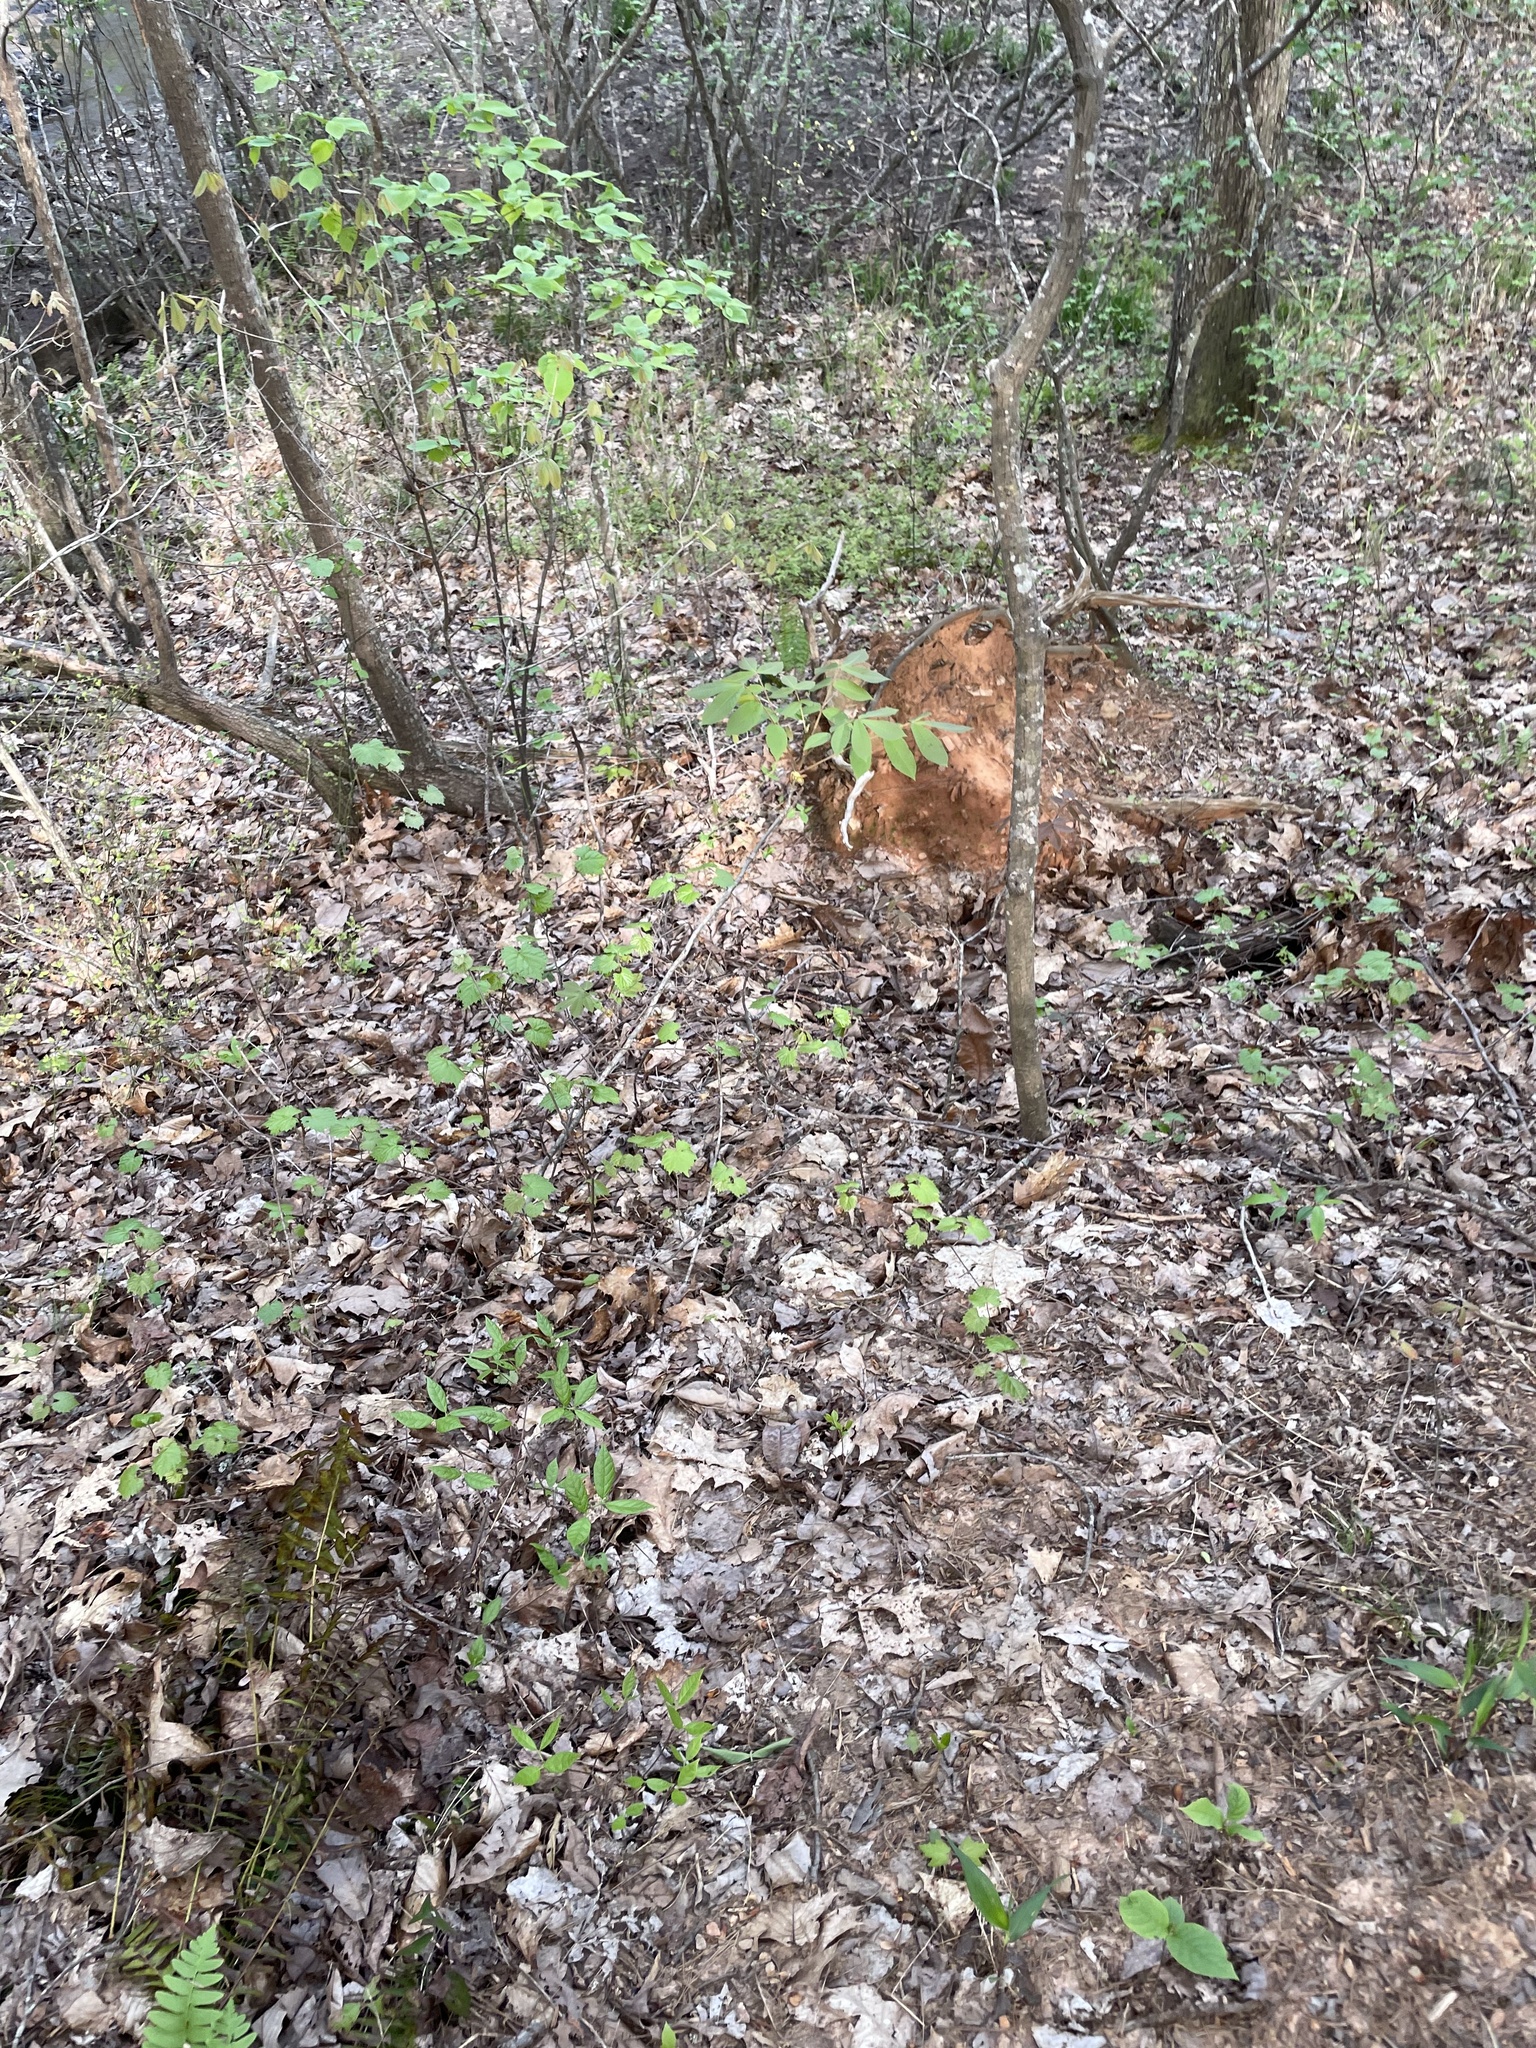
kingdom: Plantae
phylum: Tracheophyta
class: Magnoliopsida
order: Vitales
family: Vitaceae
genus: Vitis
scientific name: Vitis rotundifolia
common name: Muscadine grape
